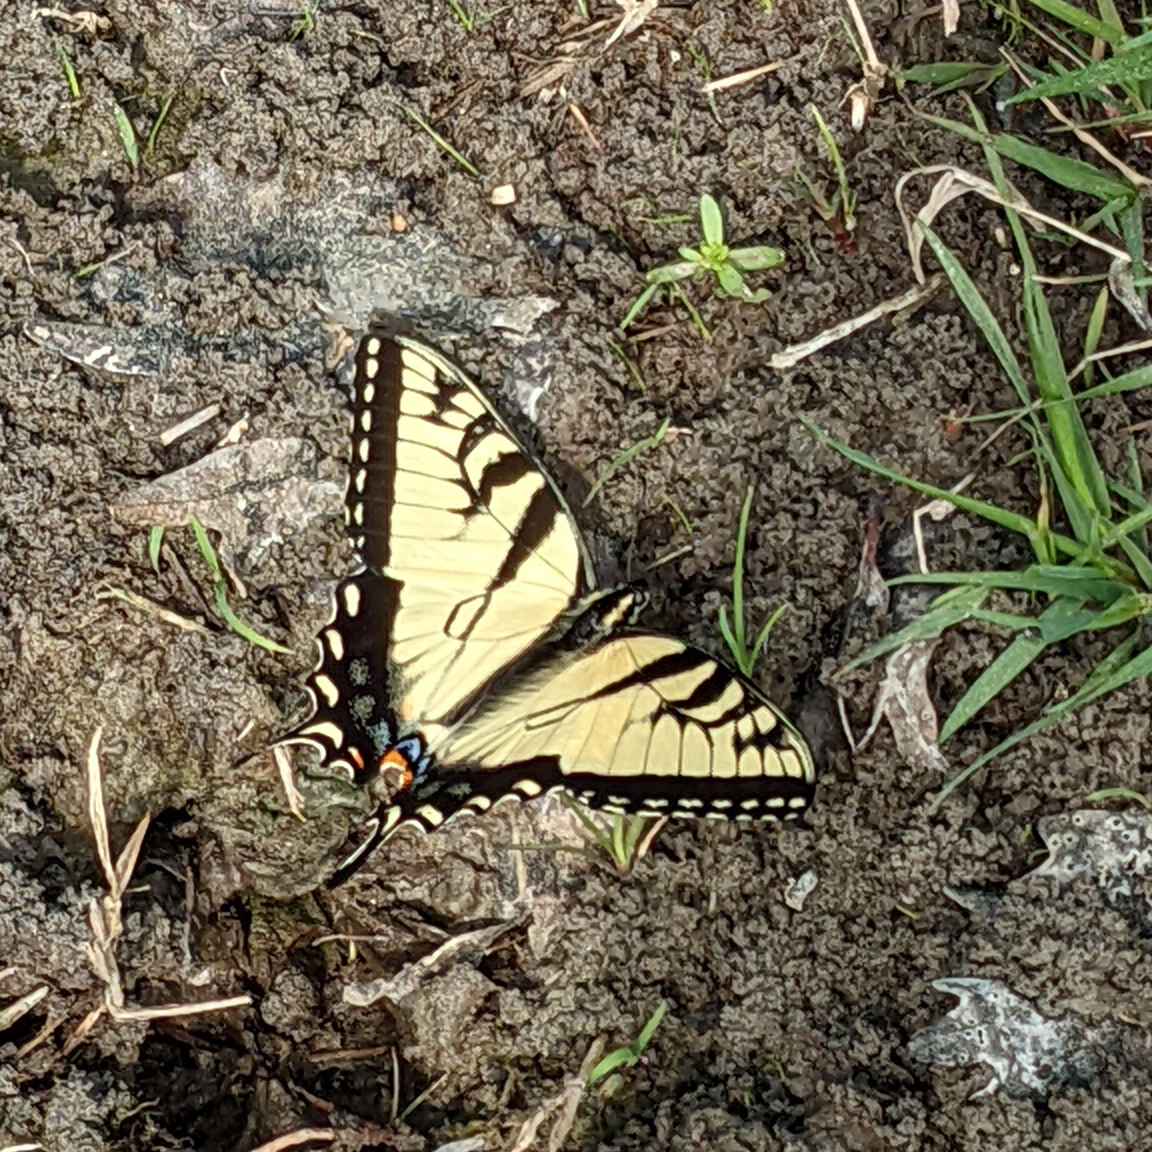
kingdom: Animalia
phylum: Arthropoda
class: Insecta
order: Lepidoptera
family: Papilionidae
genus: Papilio
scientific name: Papilio glaucus
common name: Tiger swallowtail
